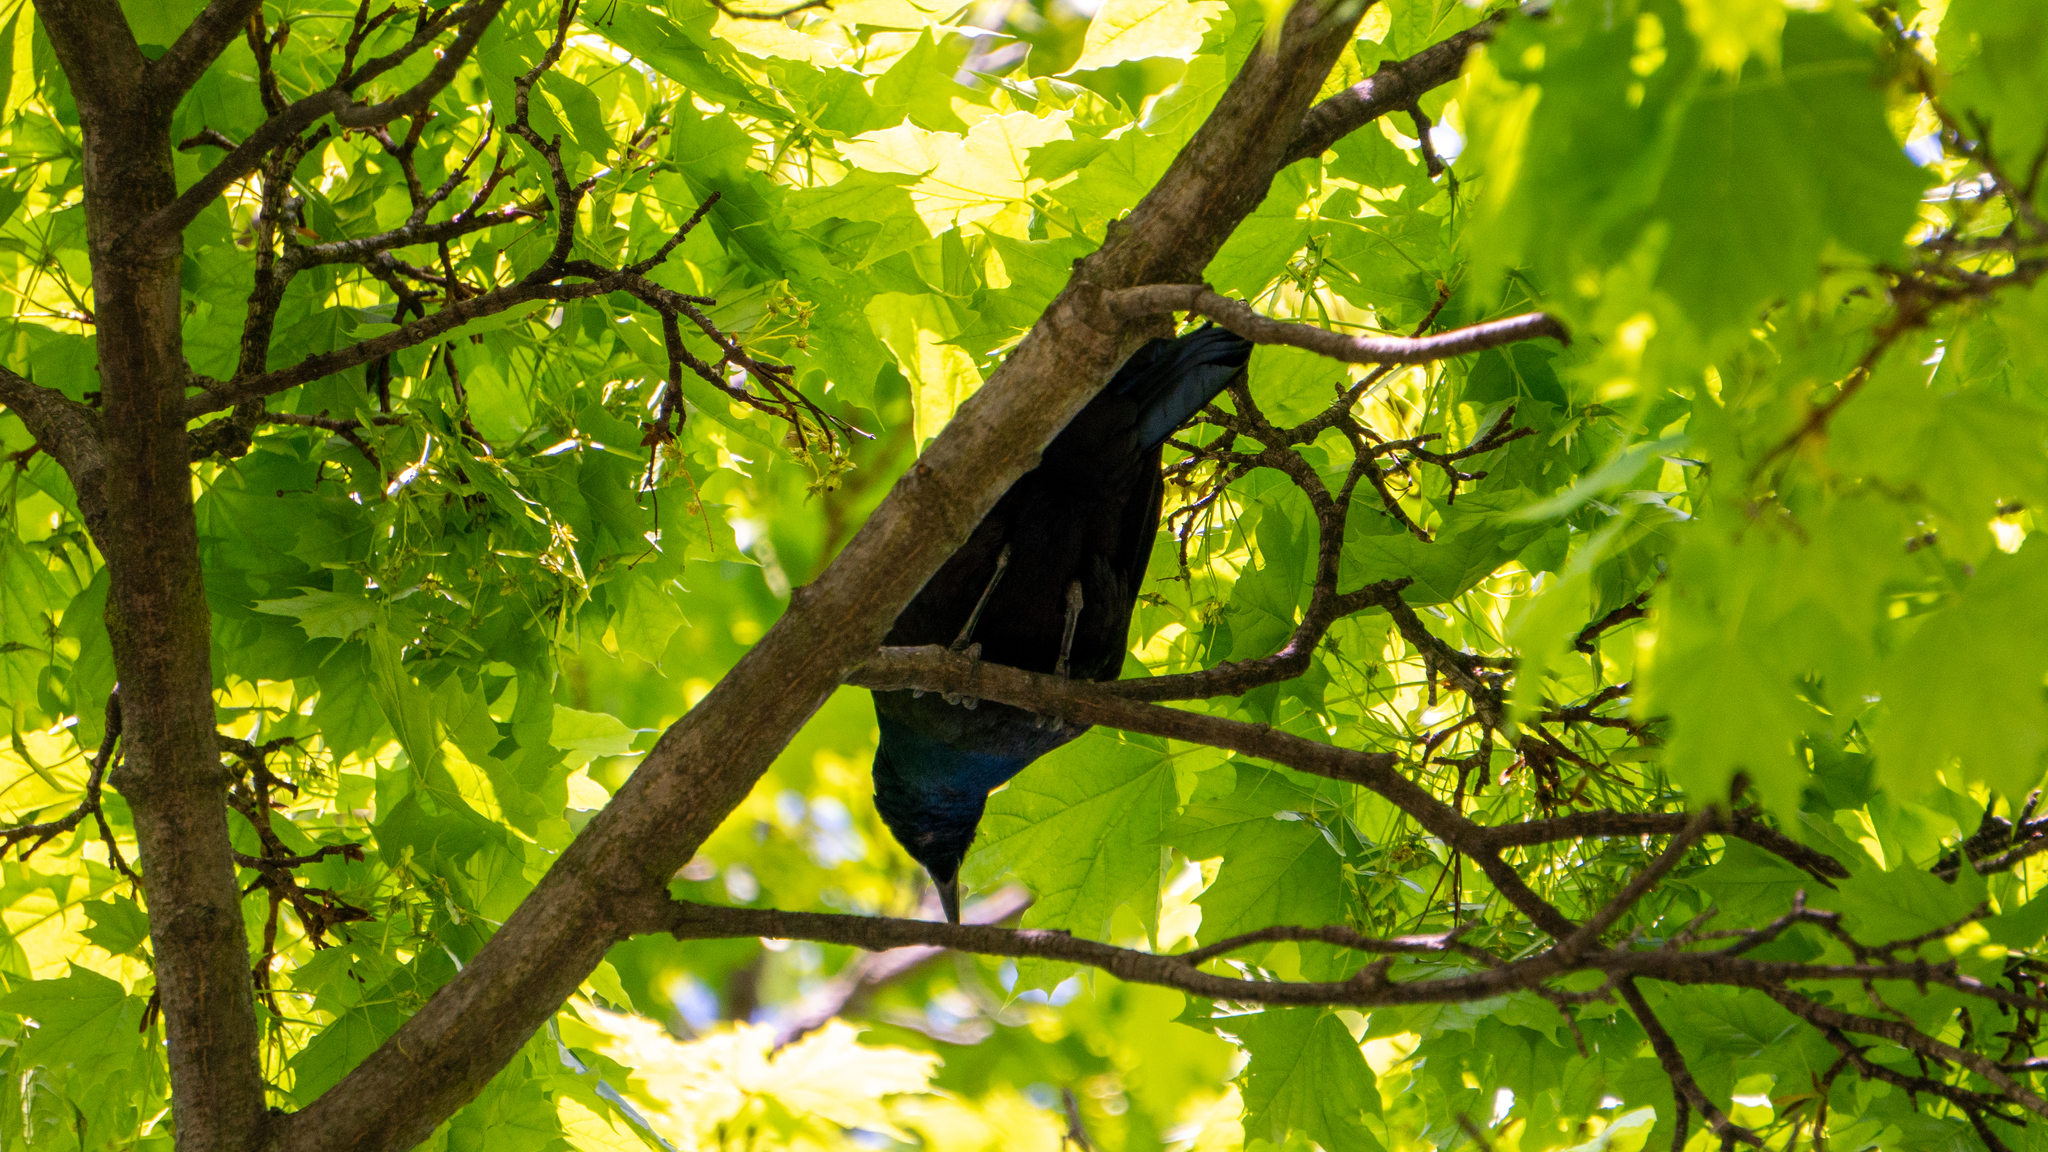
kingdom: Animalia
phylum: Chordata
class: Aves
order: Passeriformes
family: Icteridae
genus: Quiscalus
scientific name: Quiscalus quiscula
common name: Common grackle
